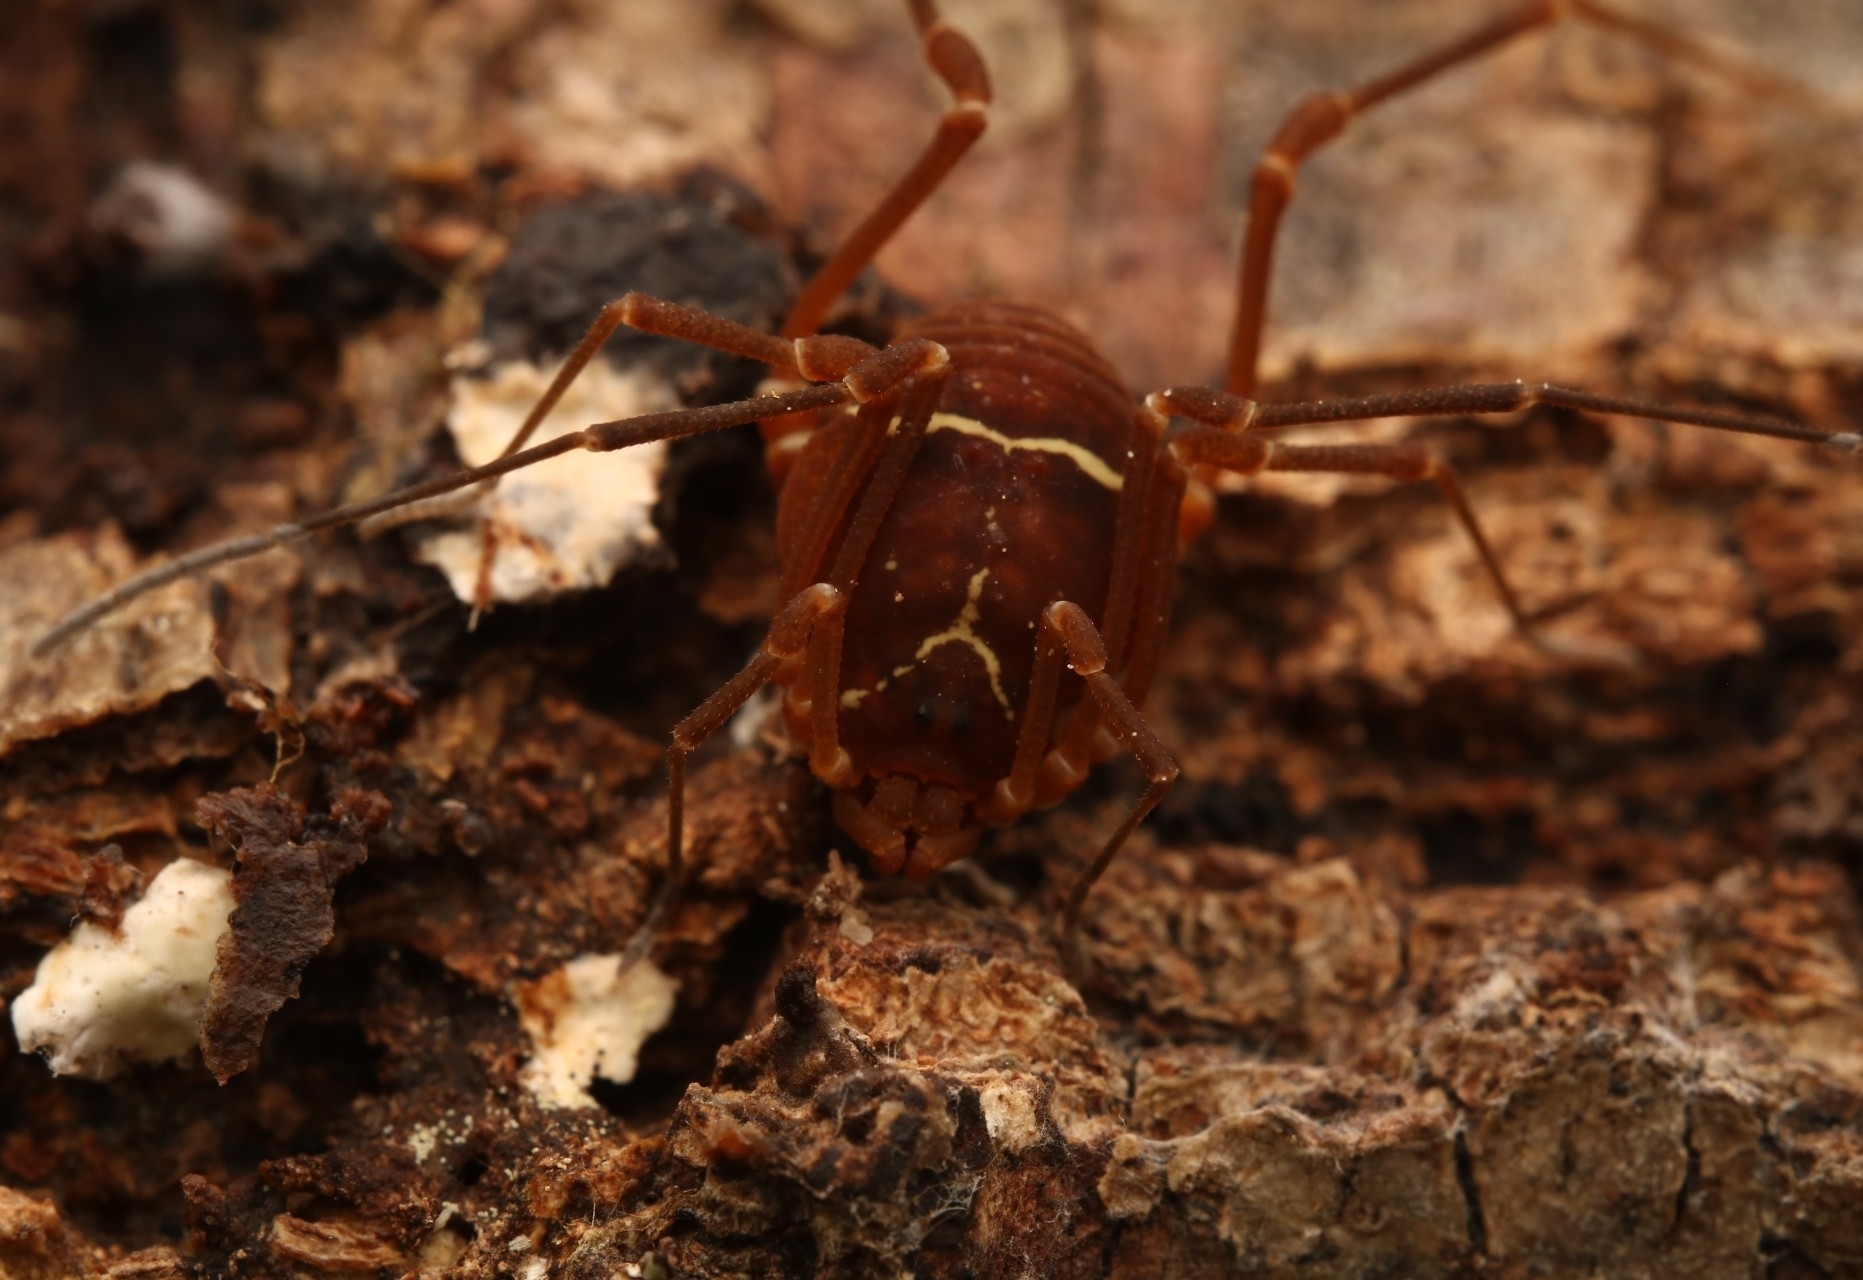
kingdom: Animalia
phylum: Arthropoda
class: Arachnida
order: Opiliones
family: Cosmetidae
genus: Libitioides
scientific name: Libitioides sayi
